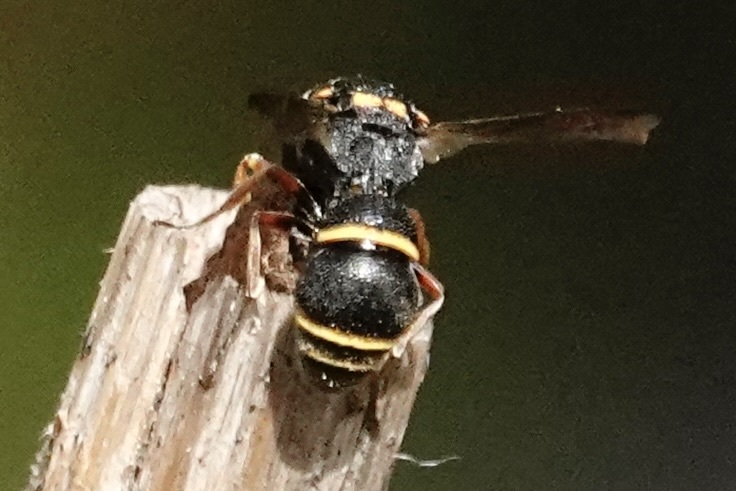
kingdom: Animalia
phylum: Arthropoda
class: Insecta
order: Hymenoptera
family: Eumenidae
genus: Cyrtolabulus
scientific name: Cyrtolabulus mutinensis
